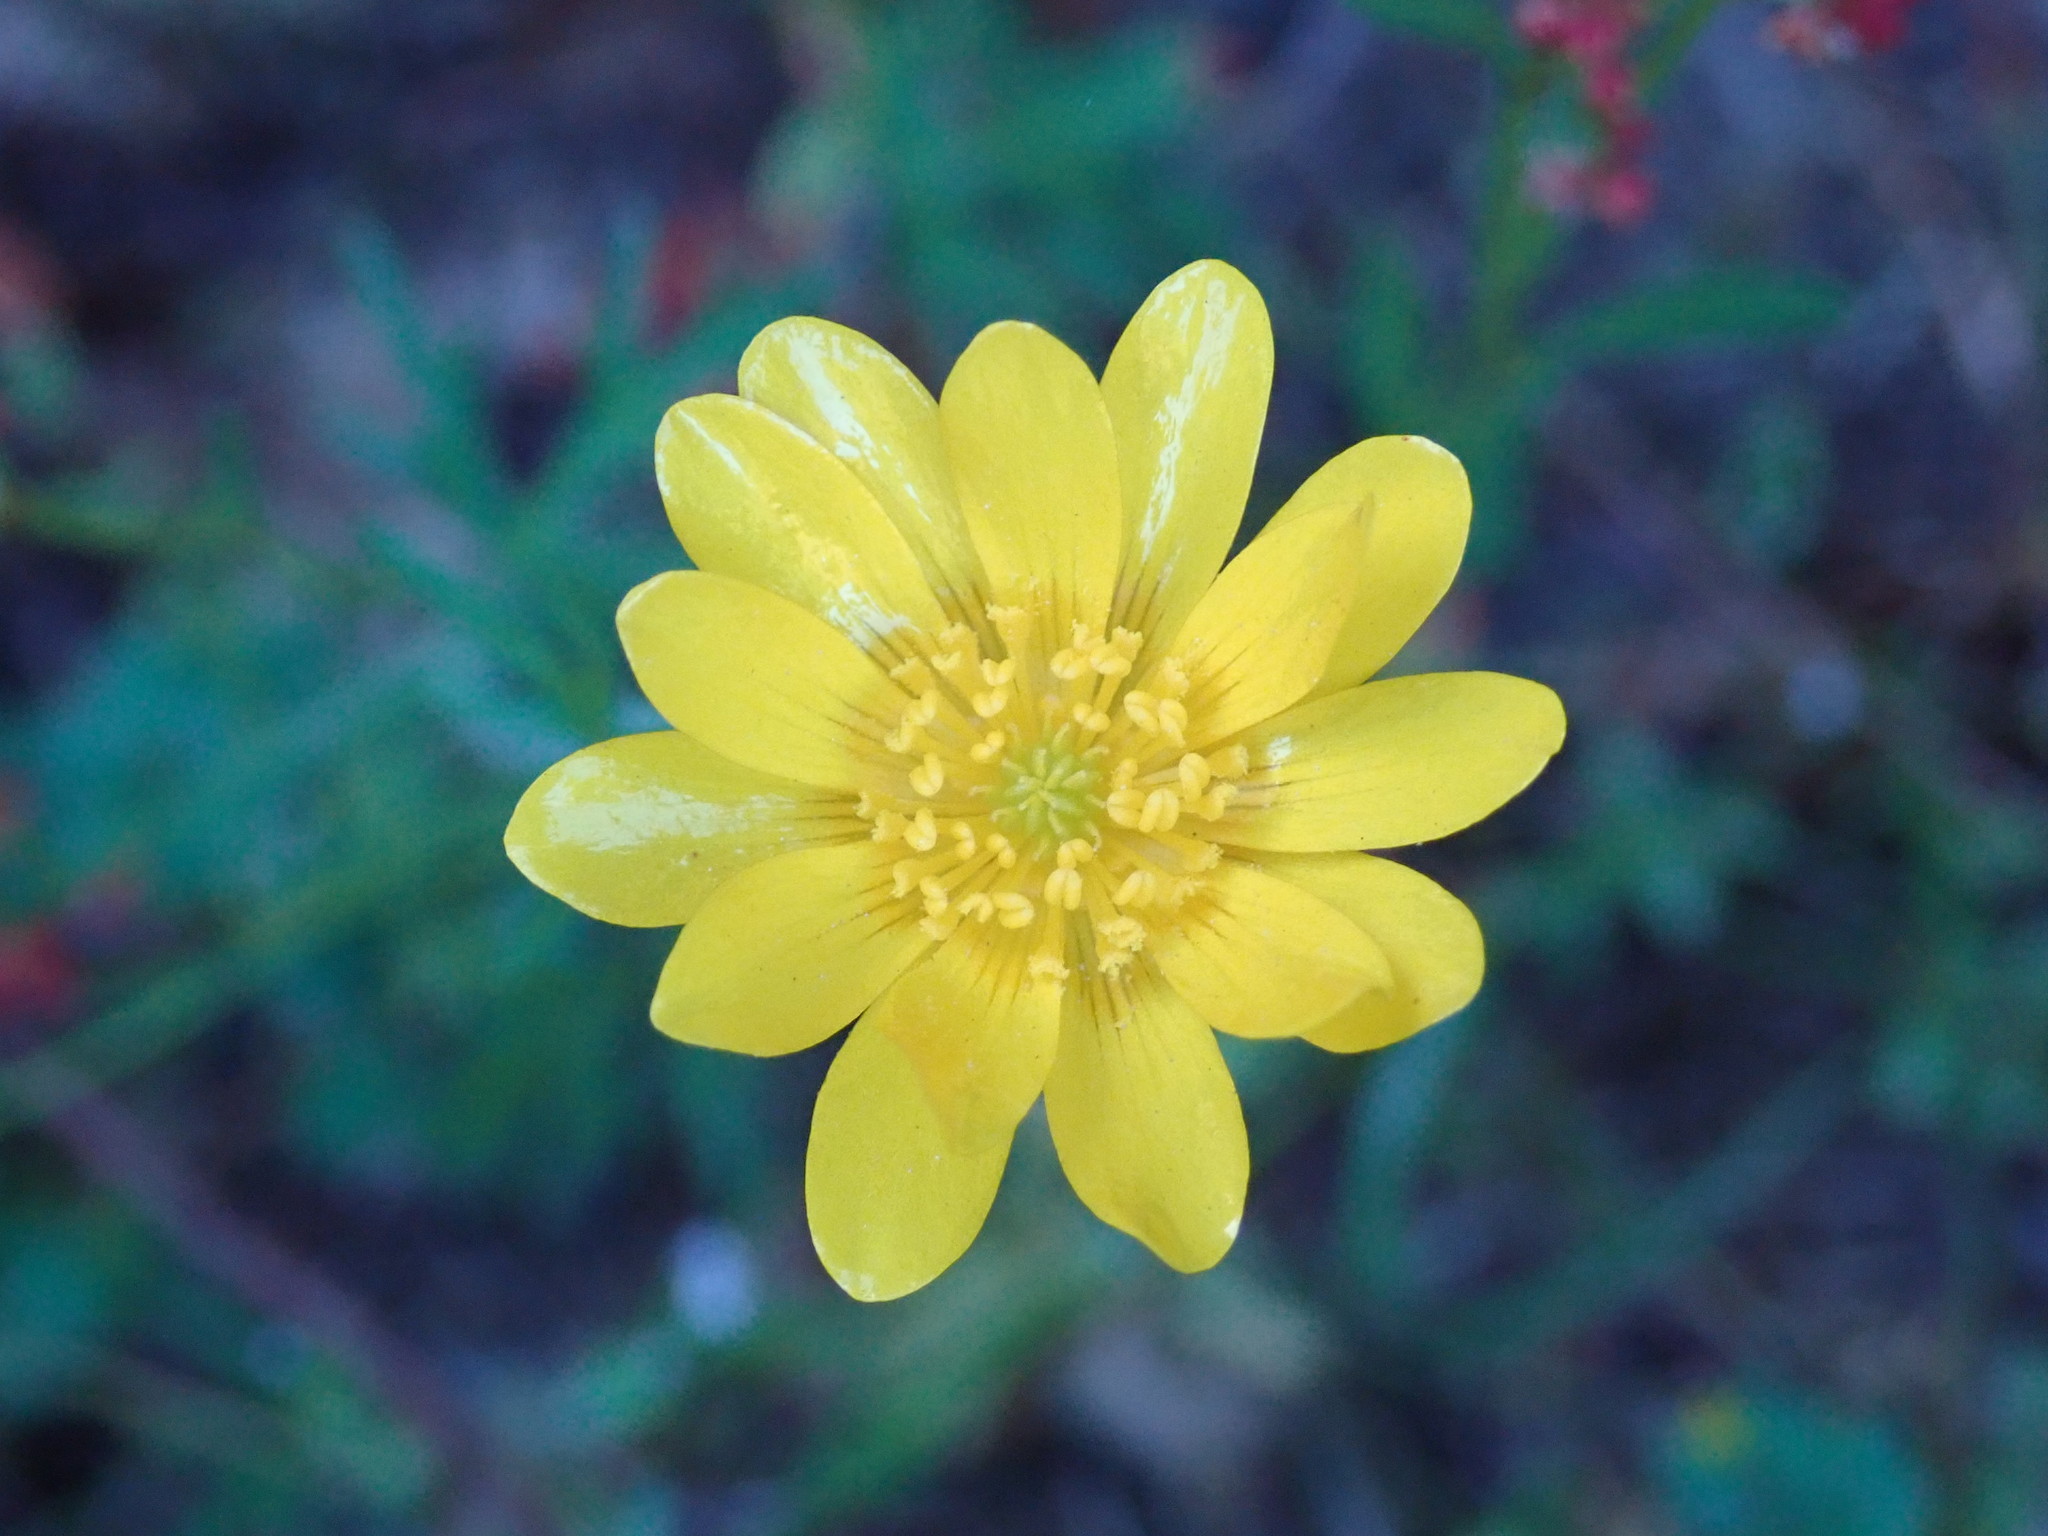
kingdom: Plantae
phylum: Tracheophyta
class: Magnoliopsida
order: Ranunculales
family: Ranunculaceae
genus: Ranunculus
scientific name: Ranunculus californicus
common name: California buttercup
